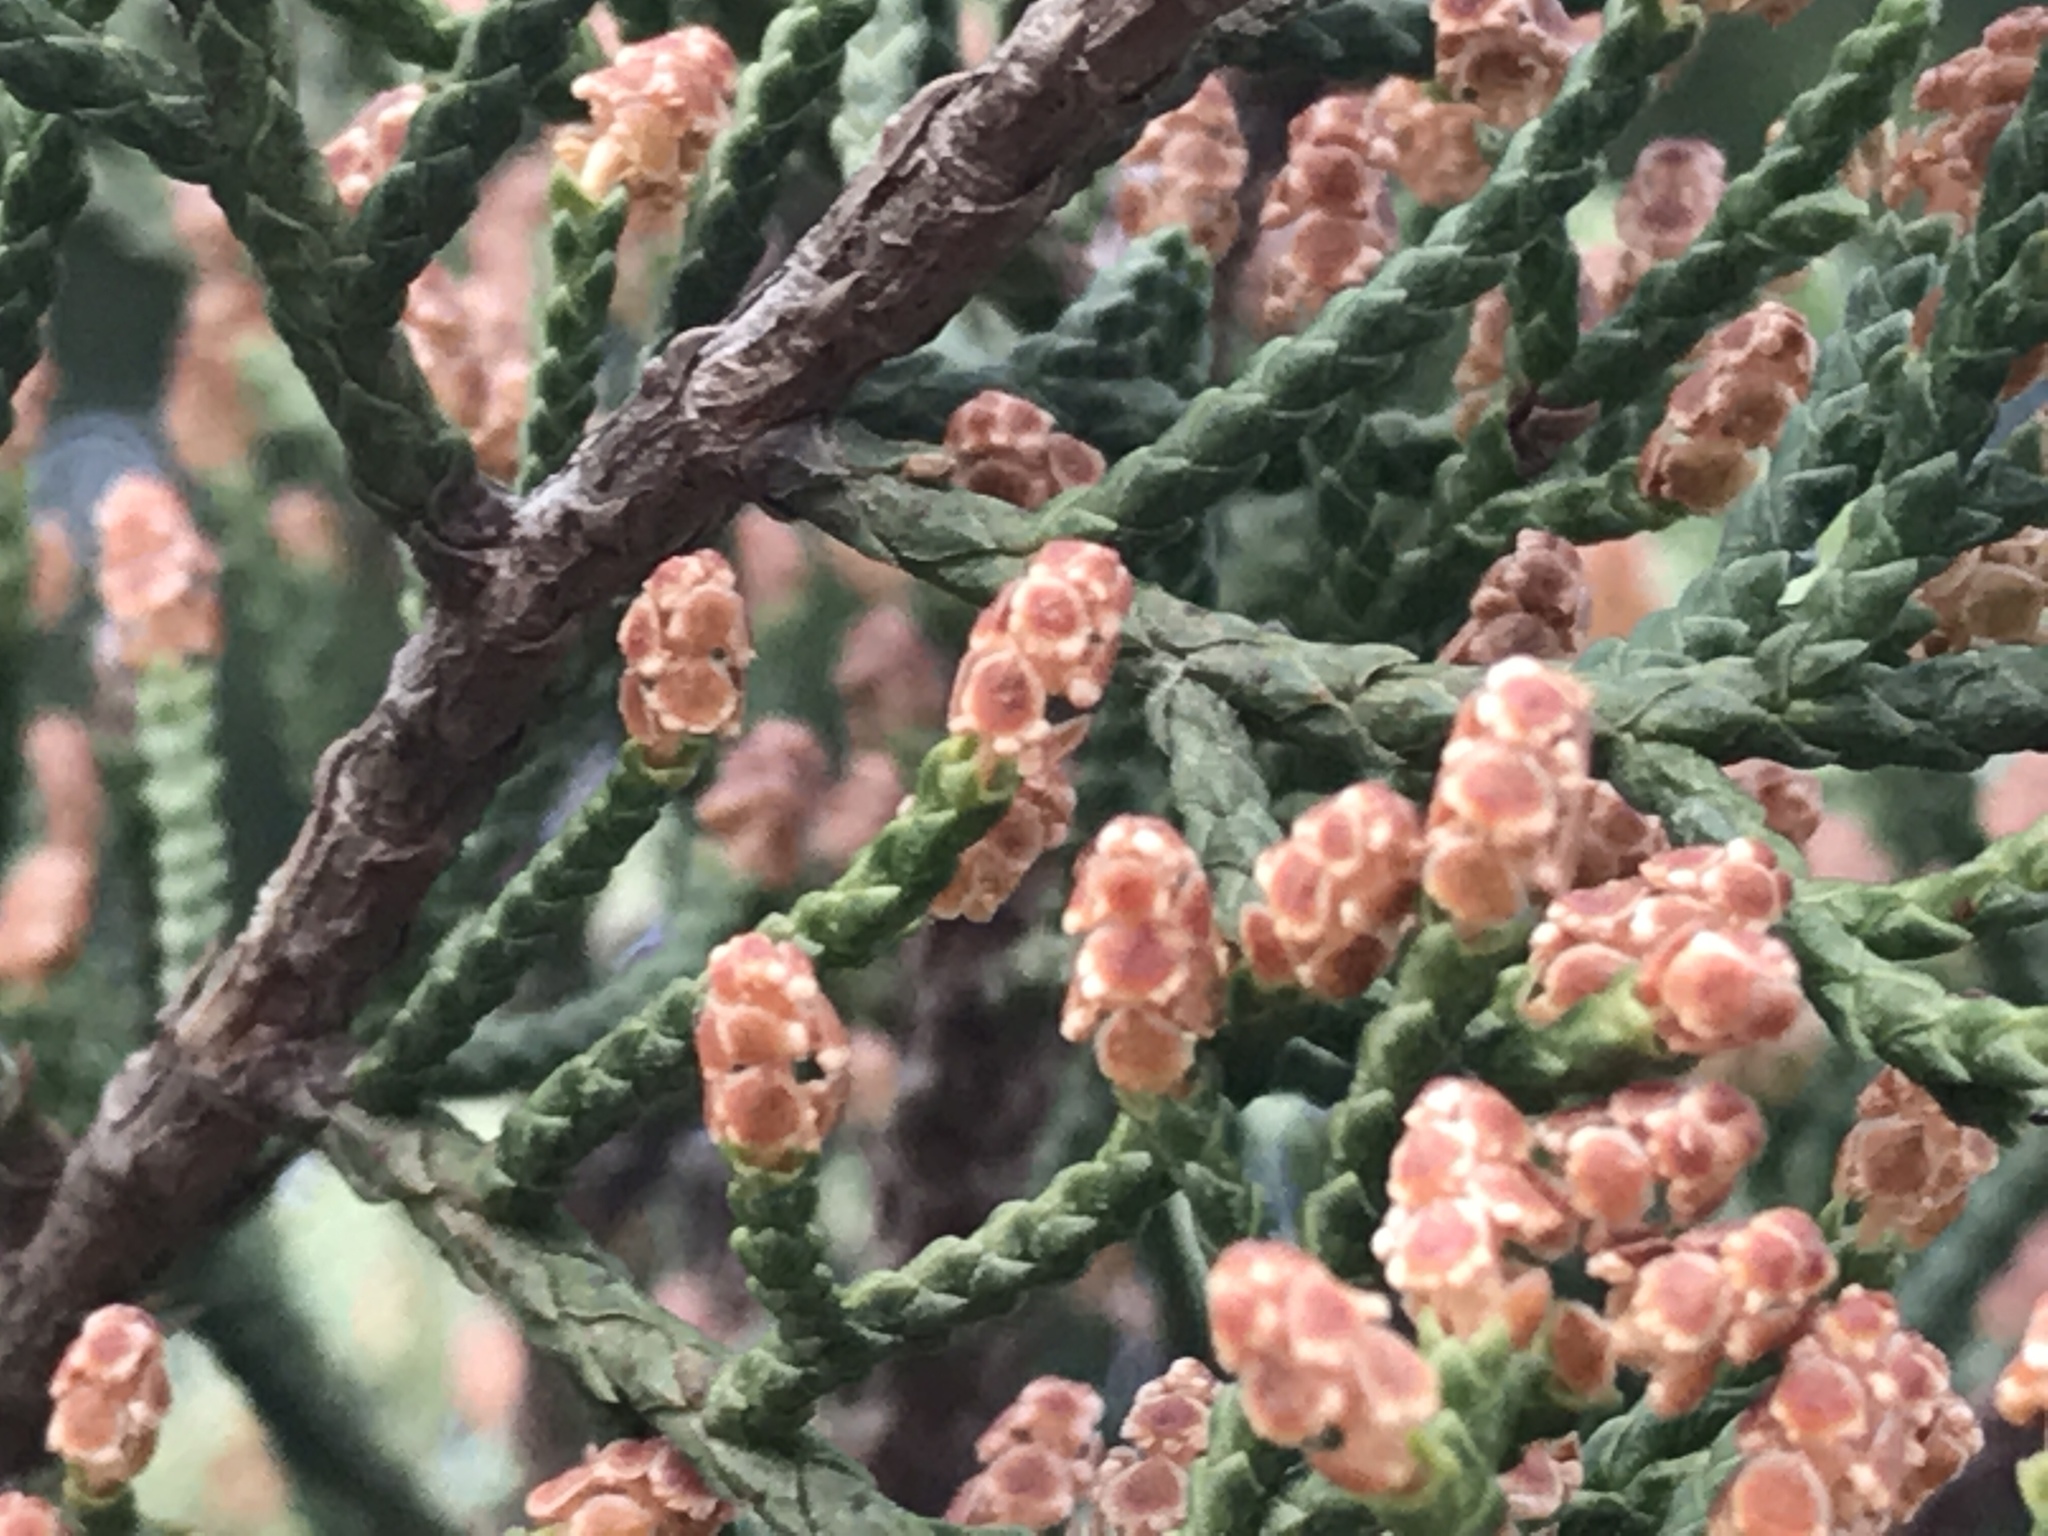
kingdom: Plantae
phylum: Tracheophyta
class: Pinopsida
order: Pinales
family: Cupressaceae
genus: Juniperus
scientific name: Juniperus ashei
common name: Mexican juniper
